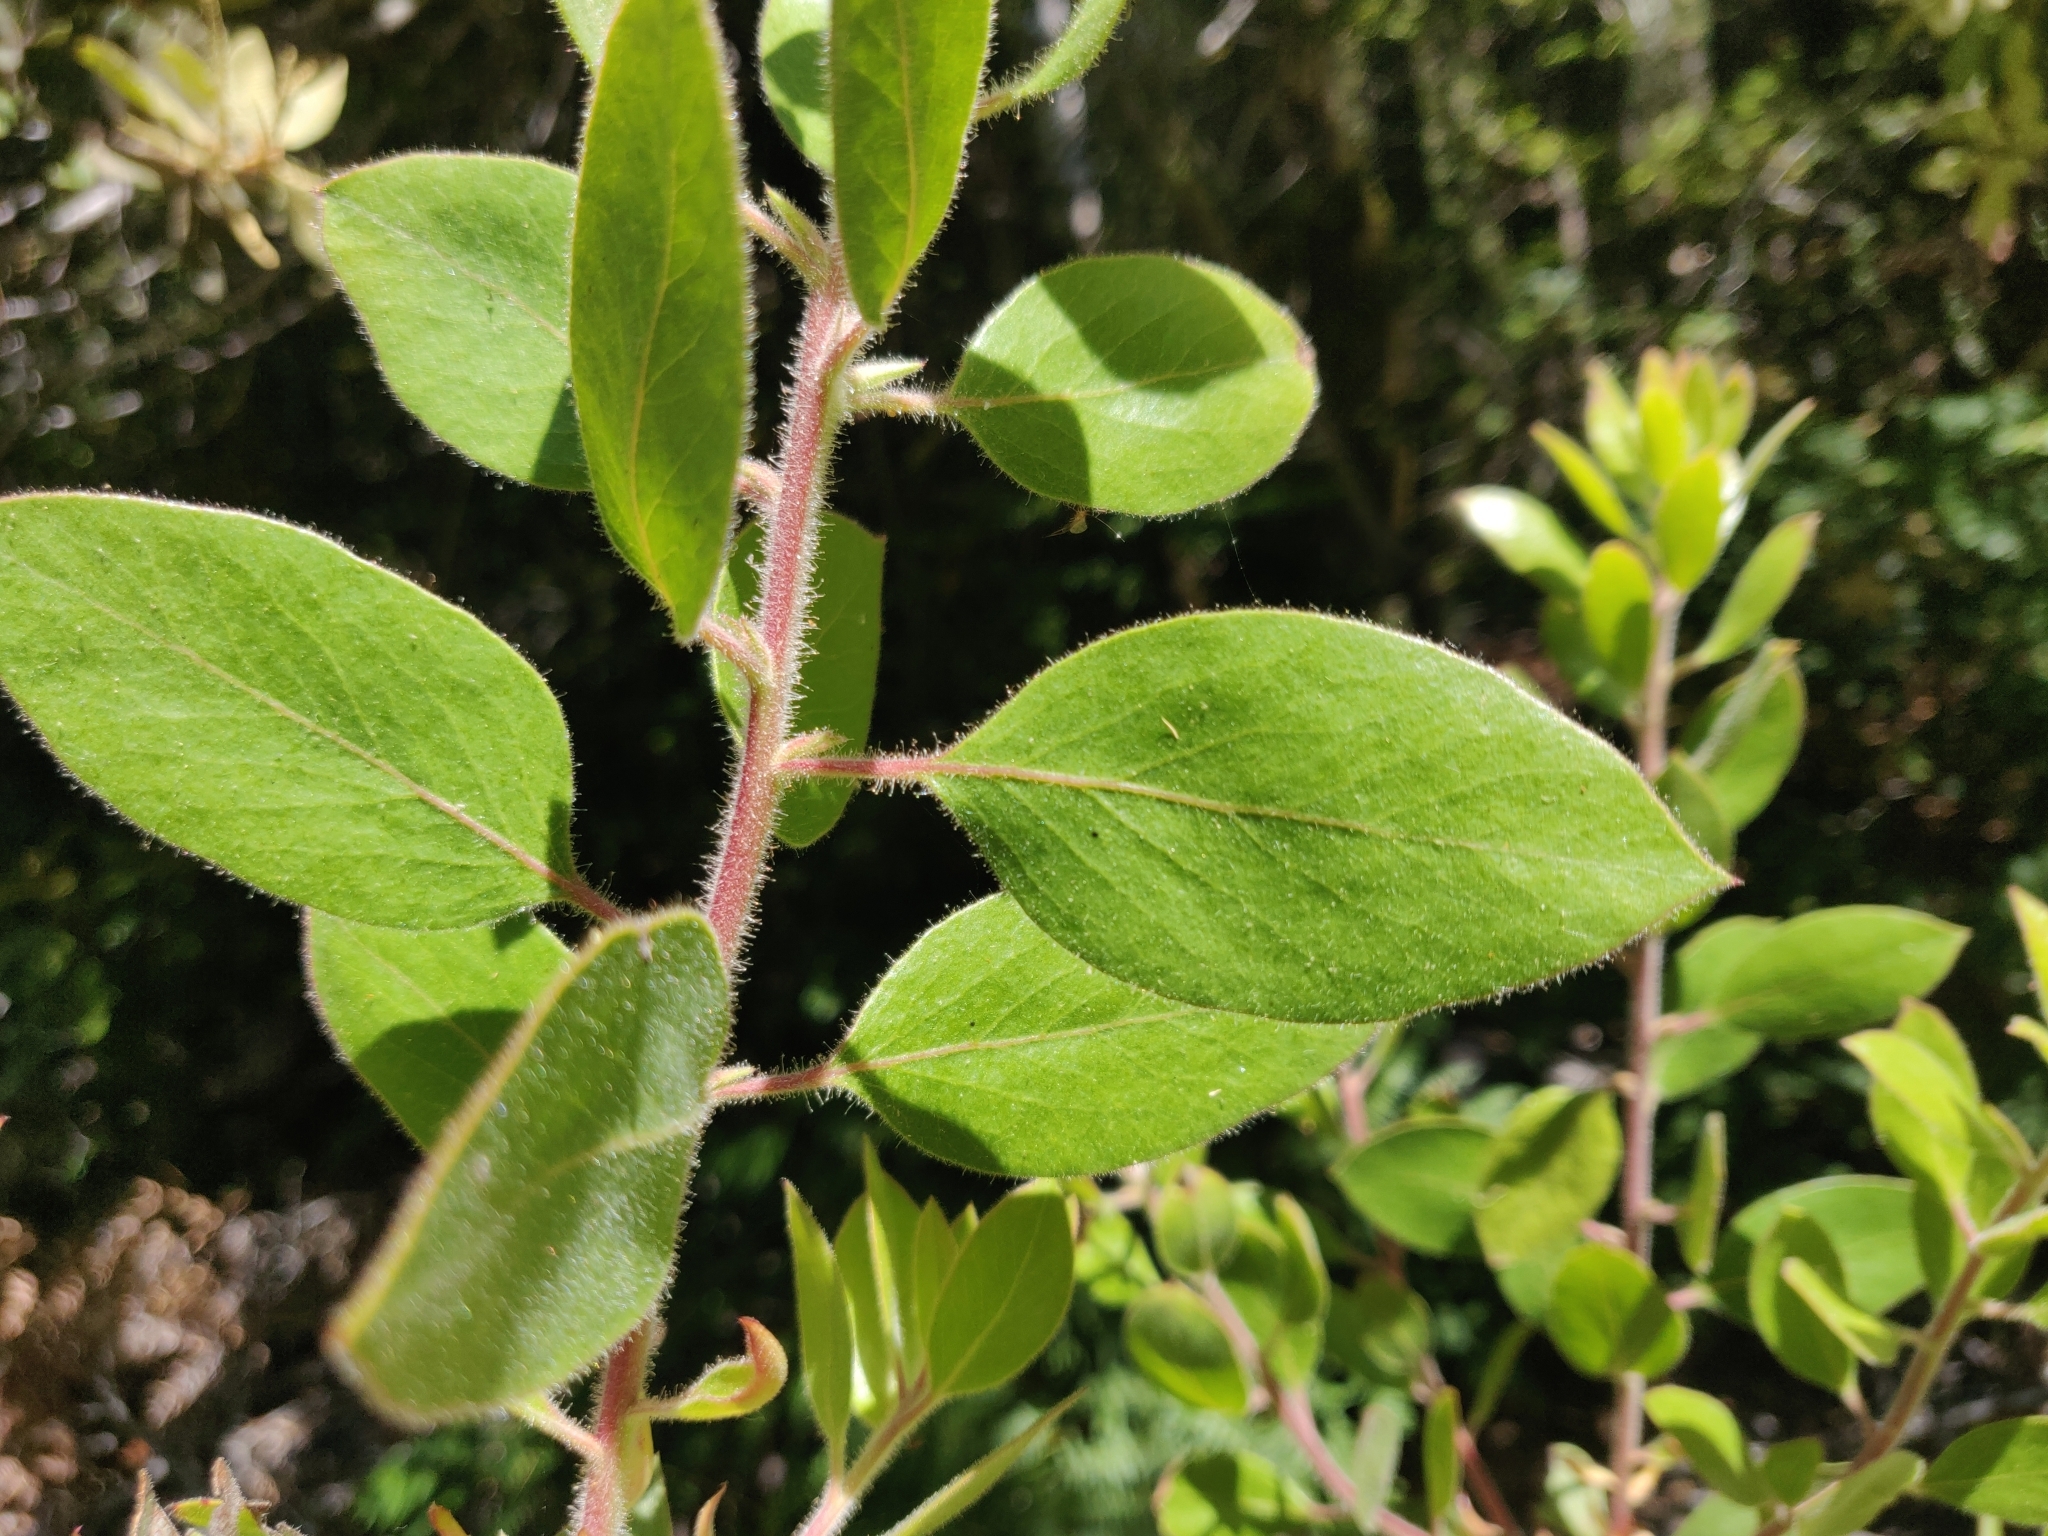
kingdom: Plantae
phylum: Tracheophyta
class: Magnoliopsida
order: Ericales
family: Ericaceae
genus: Arctostaphylos
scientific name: Arctostaphylos columbiana
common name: Bristly bearberry
